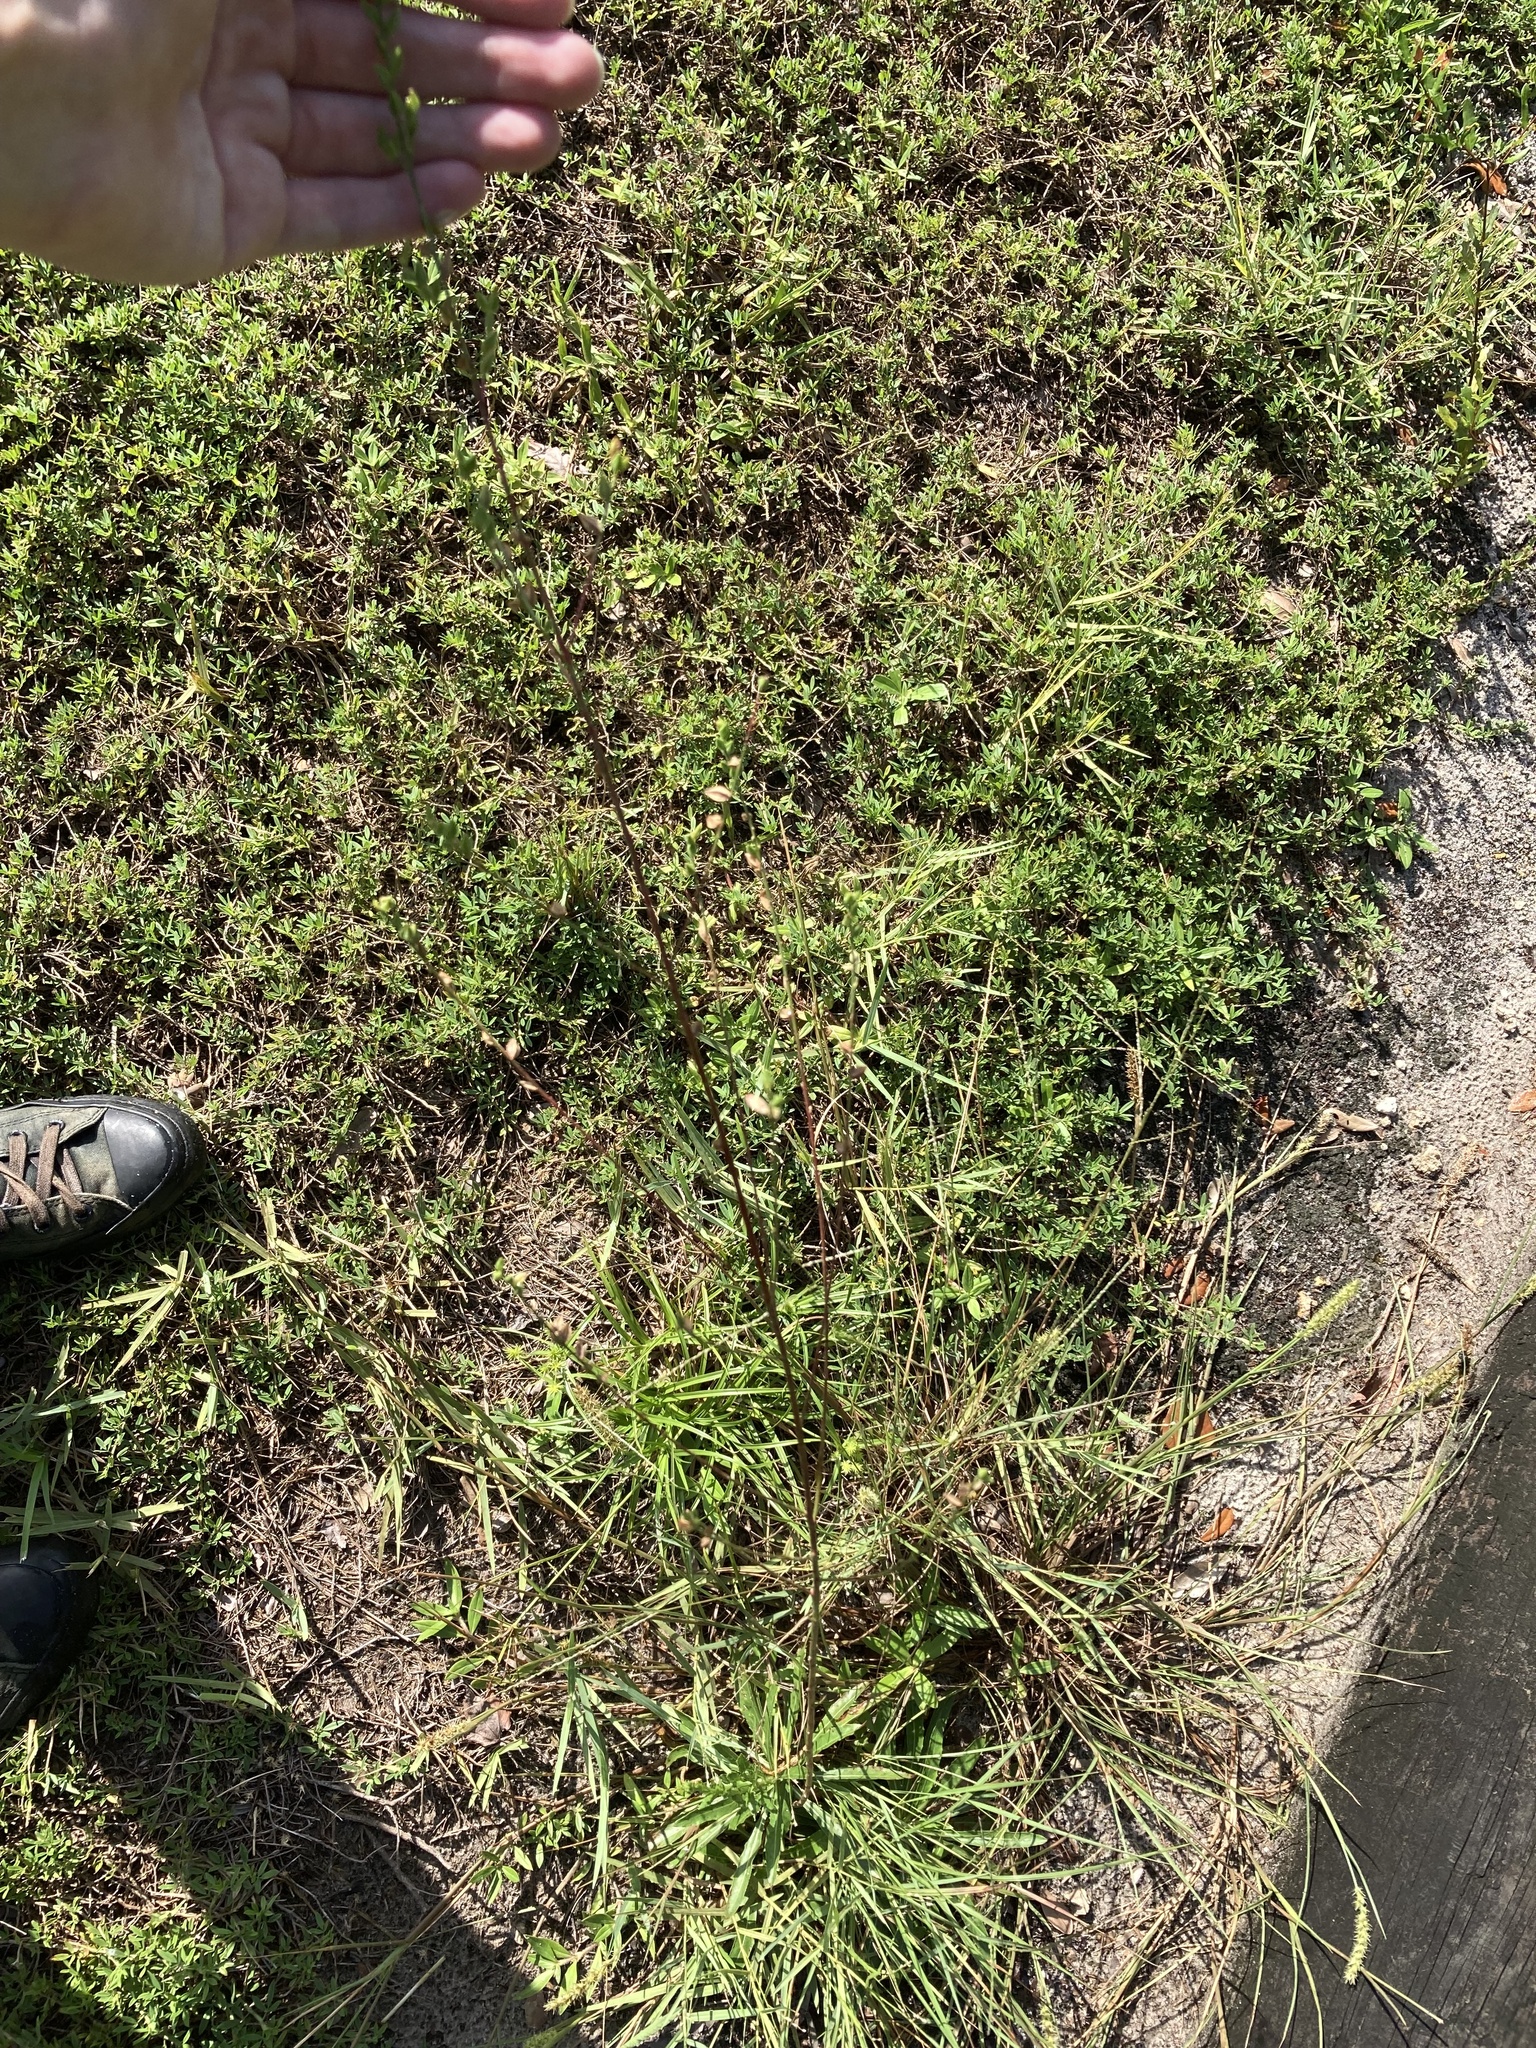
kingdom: Plantae
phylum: Tracheophyta
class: Magnoliopsida
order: Myrtales
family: Onagraceae
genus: Oenothera
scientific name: Oenothera simulans
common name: Southern beeblossom
